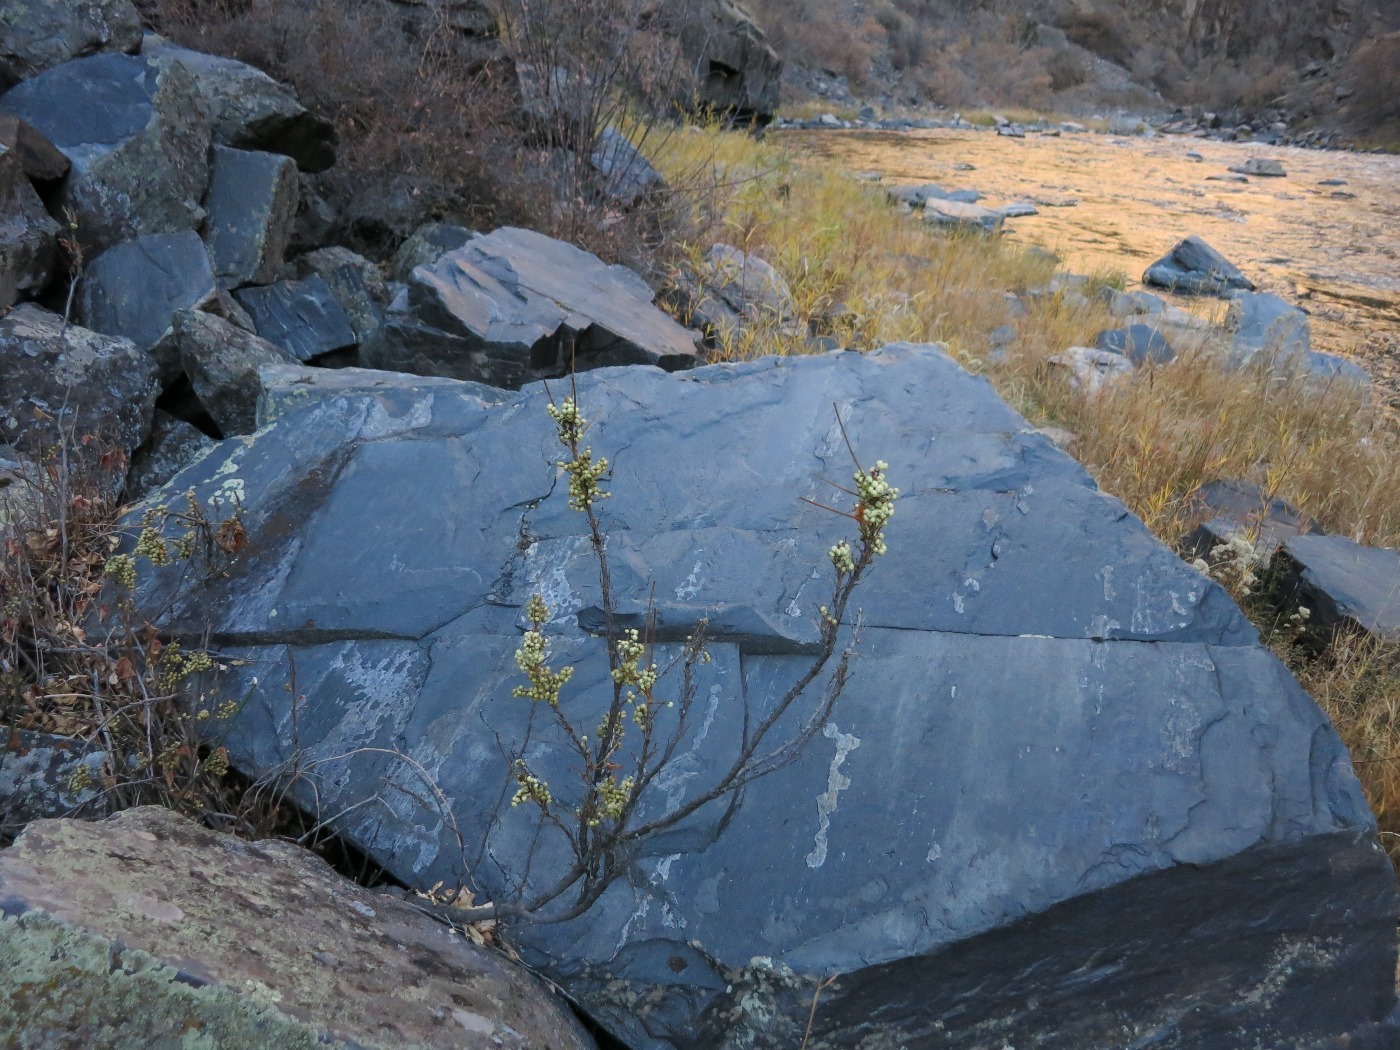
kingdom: Plantae
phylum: Tracheophyta
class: Magnoliopsida
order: Sapindales
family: Anacardiaceae
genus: Toxicodendron
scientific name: Toxicodendron rydbergii
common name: Rydberg's poison-ivy
